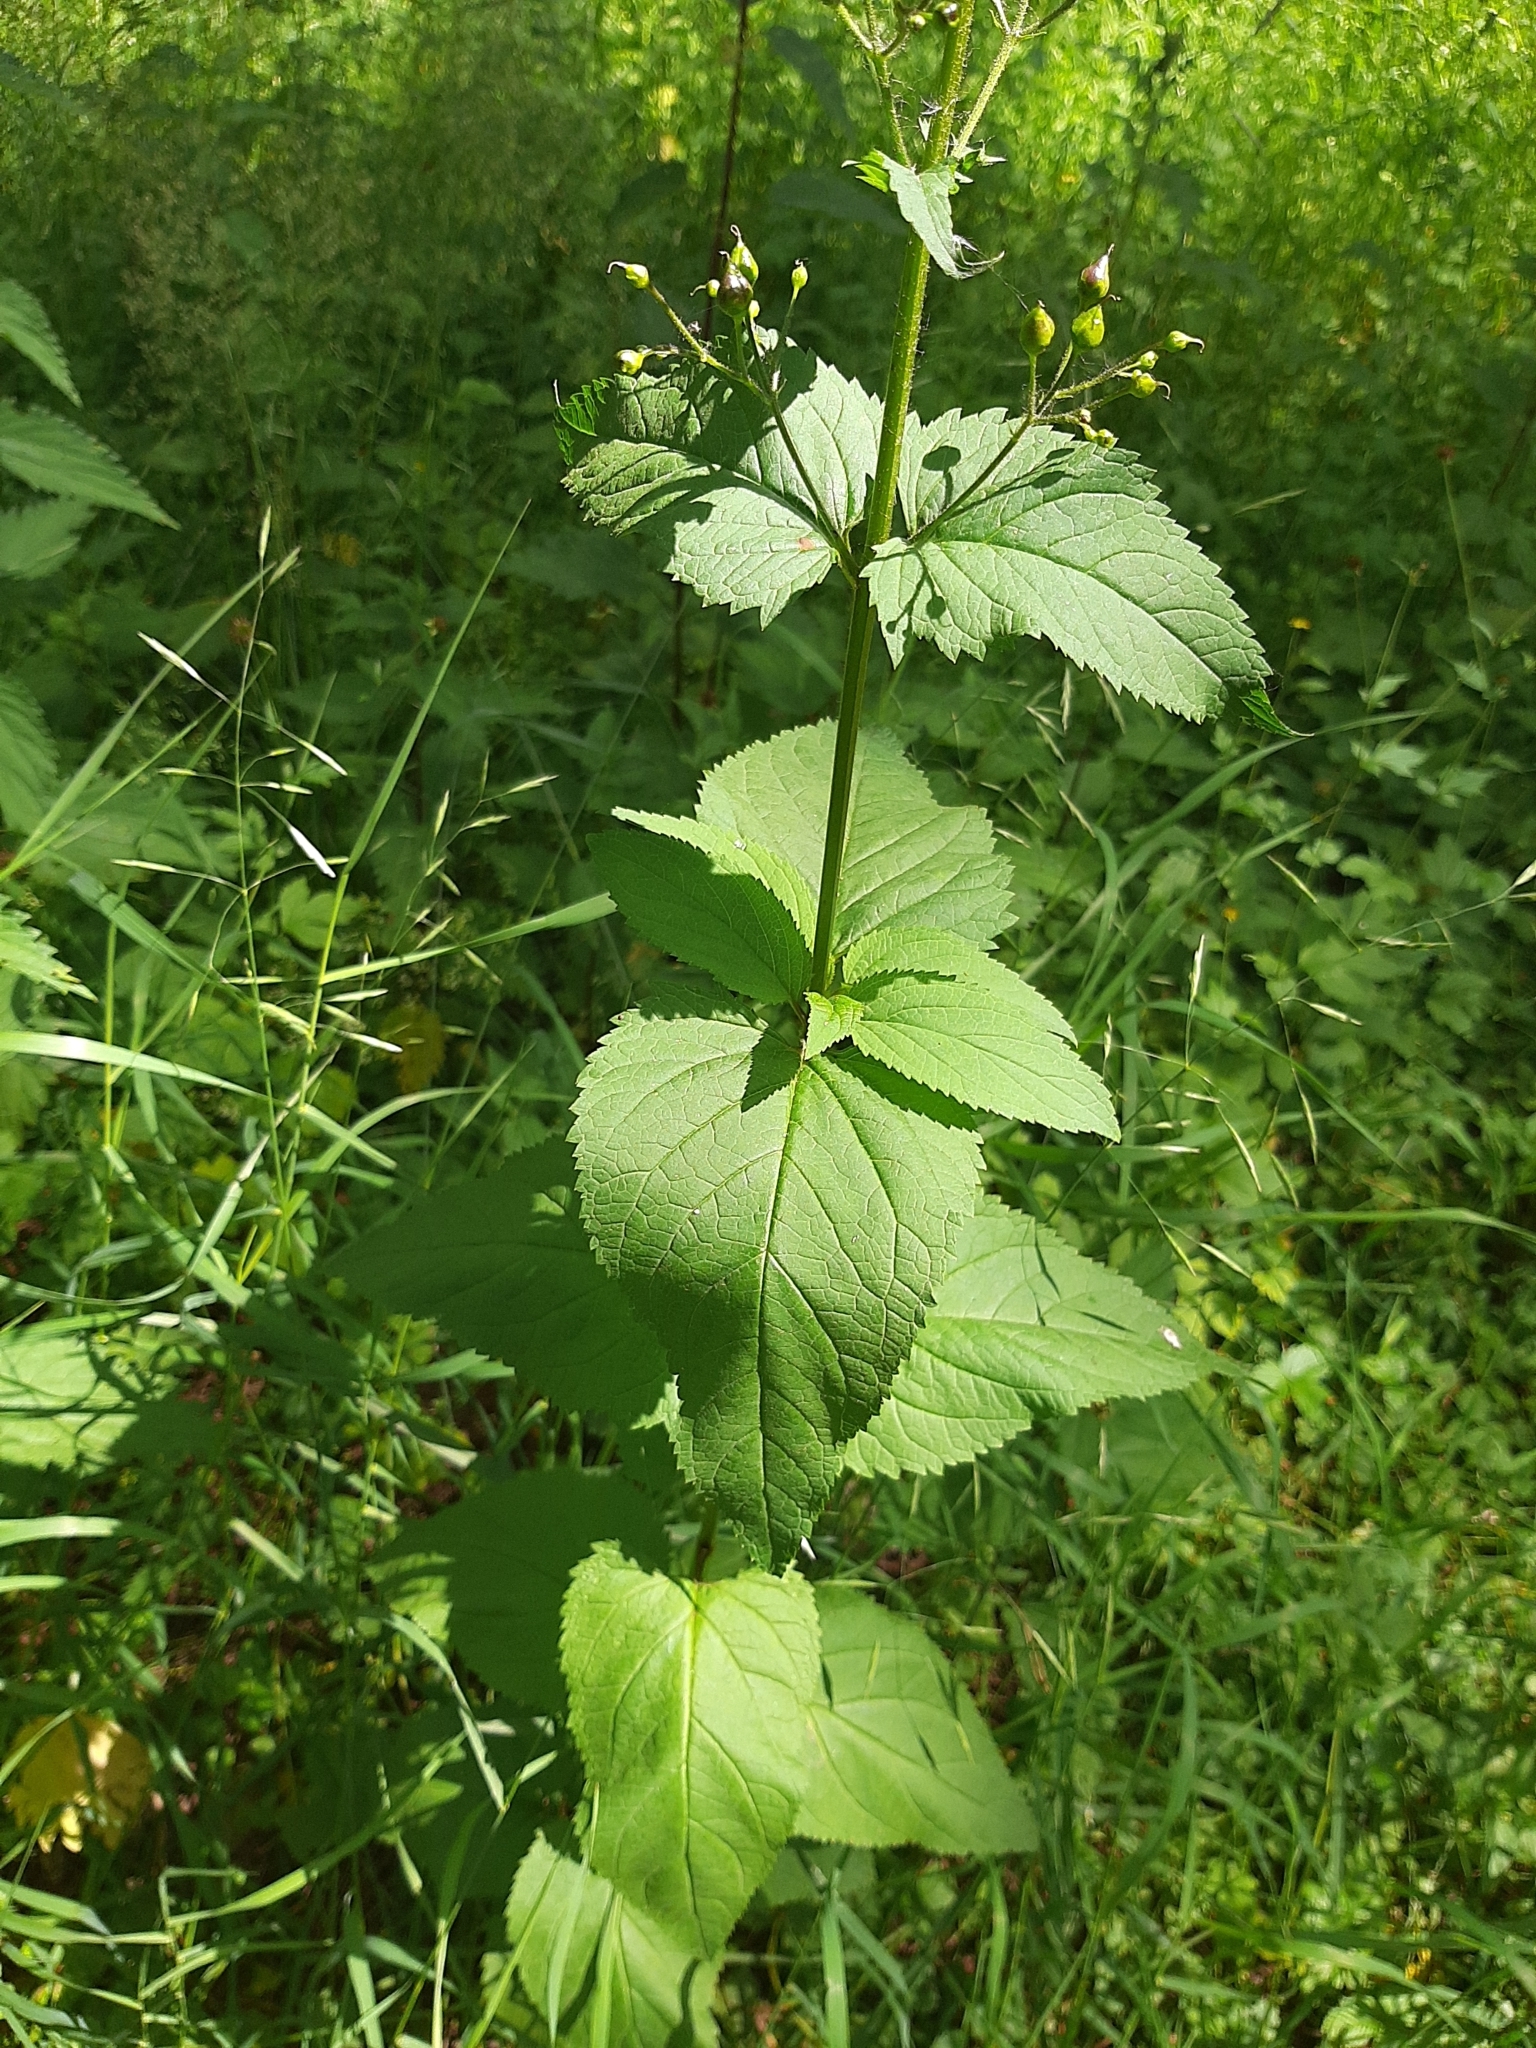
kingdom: Plantae
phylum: Tracheophyta
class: Magnoliopsida
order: Lamiales
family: Scrophulariaceae
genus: Scrophularia
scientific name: Scrophularia nodosa
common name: Common figwort
